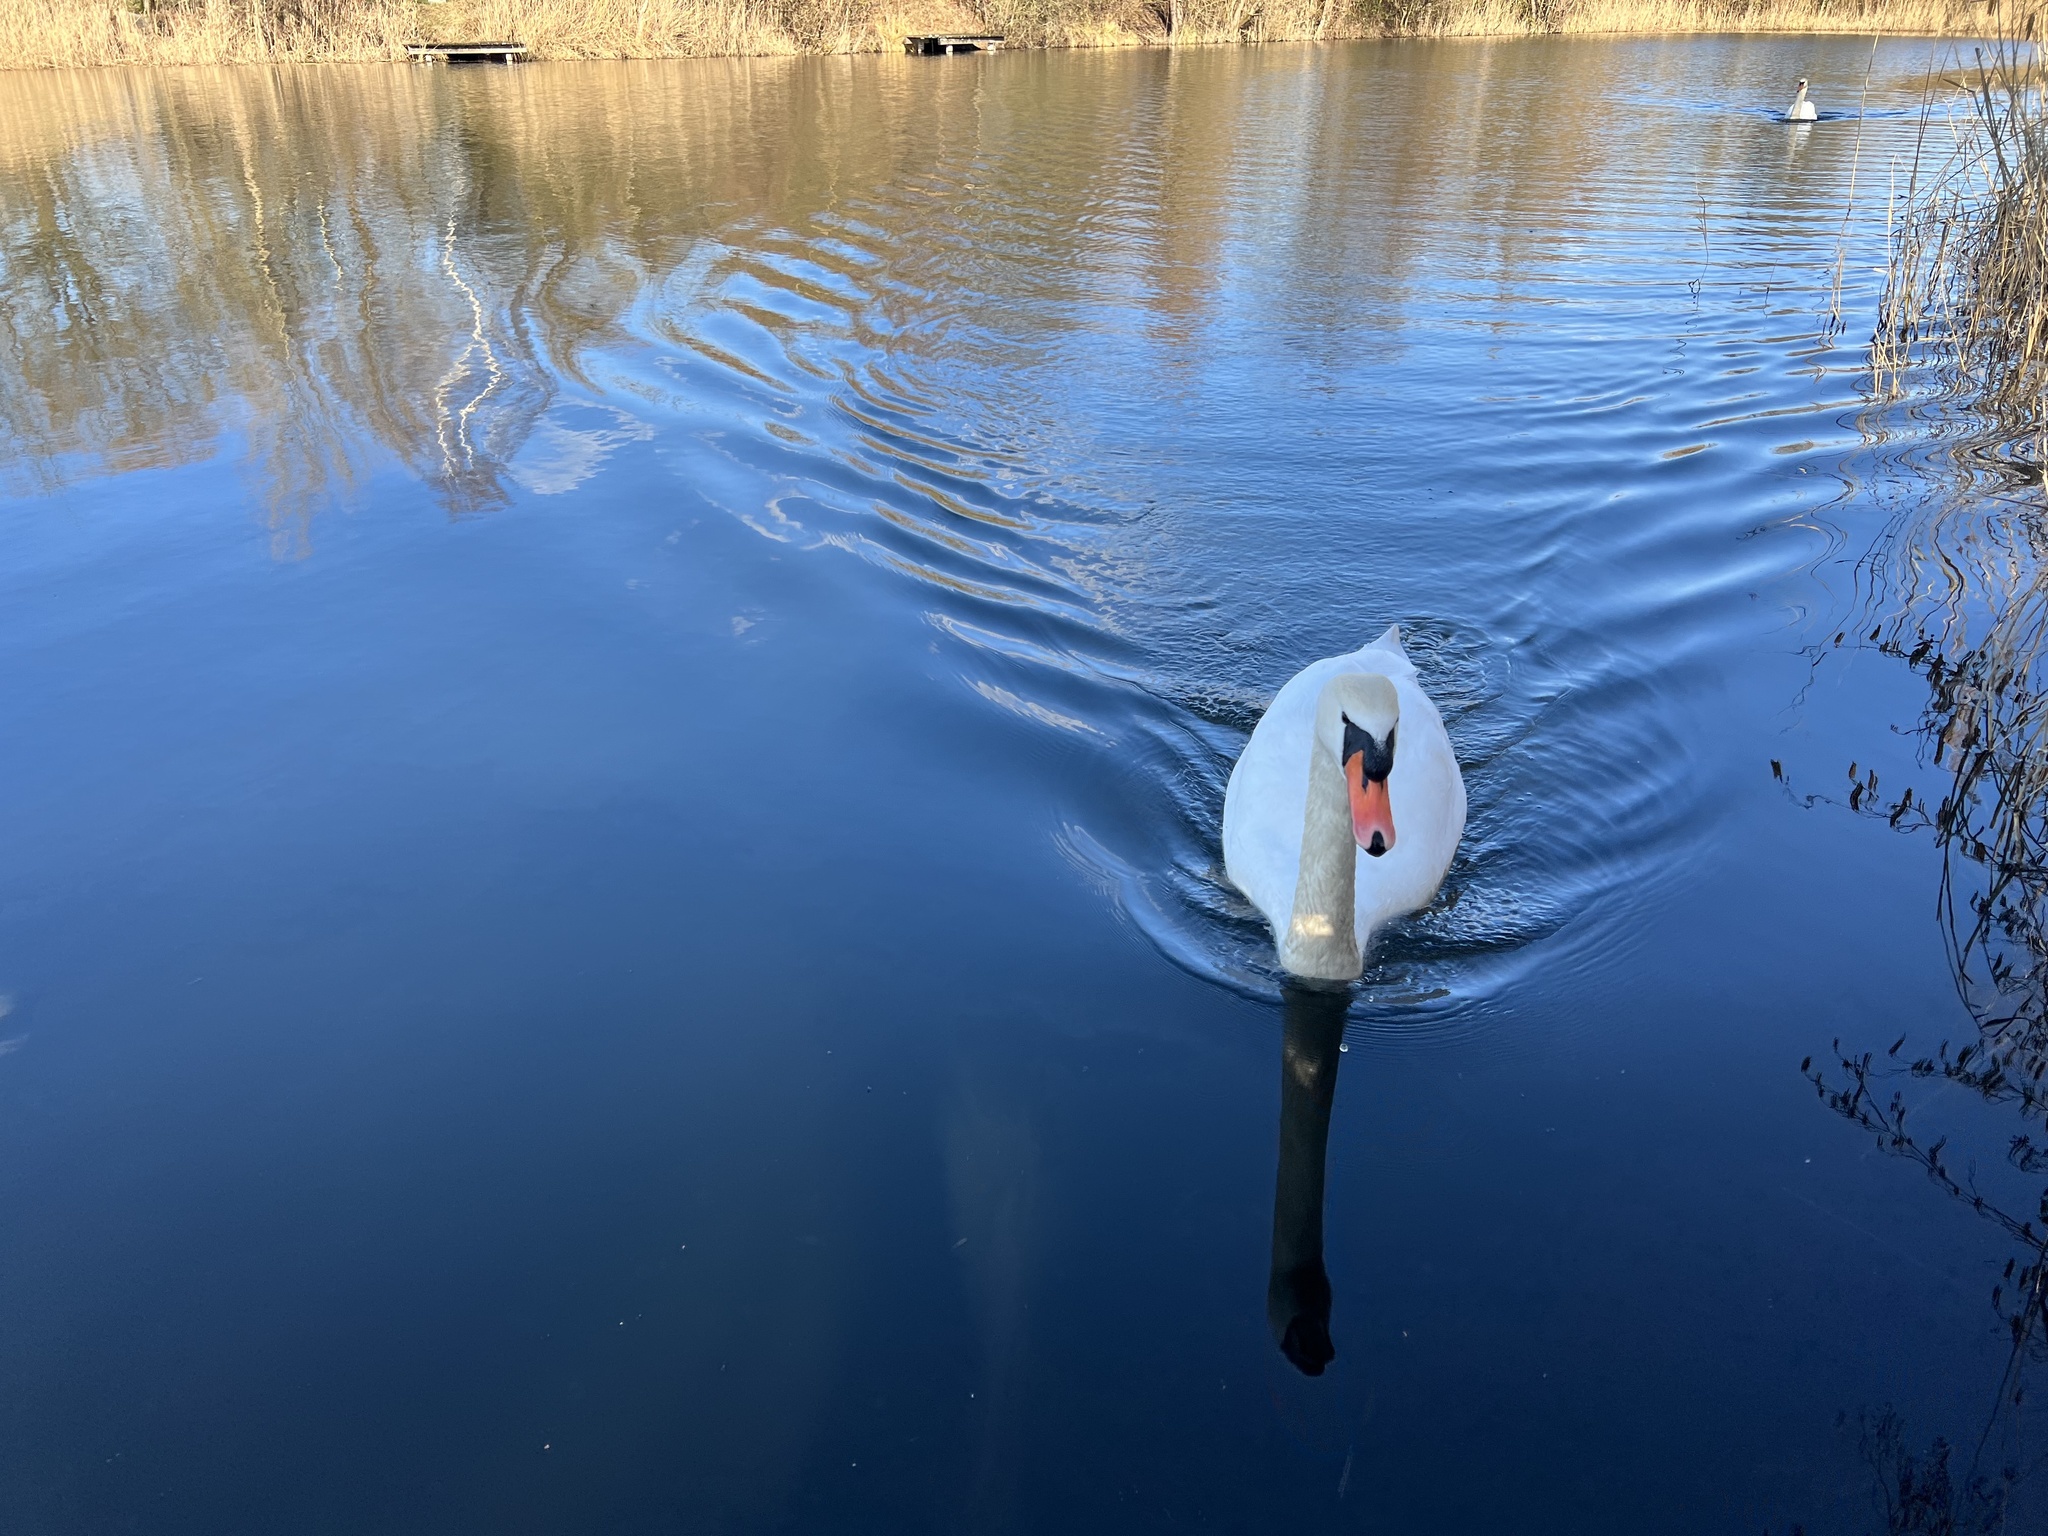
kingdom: Animalia
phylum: Chordata
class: Aves
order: Anseriformes
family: Anatidae
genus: Cygnus
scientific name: Cygnus olor
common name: Mute swan
